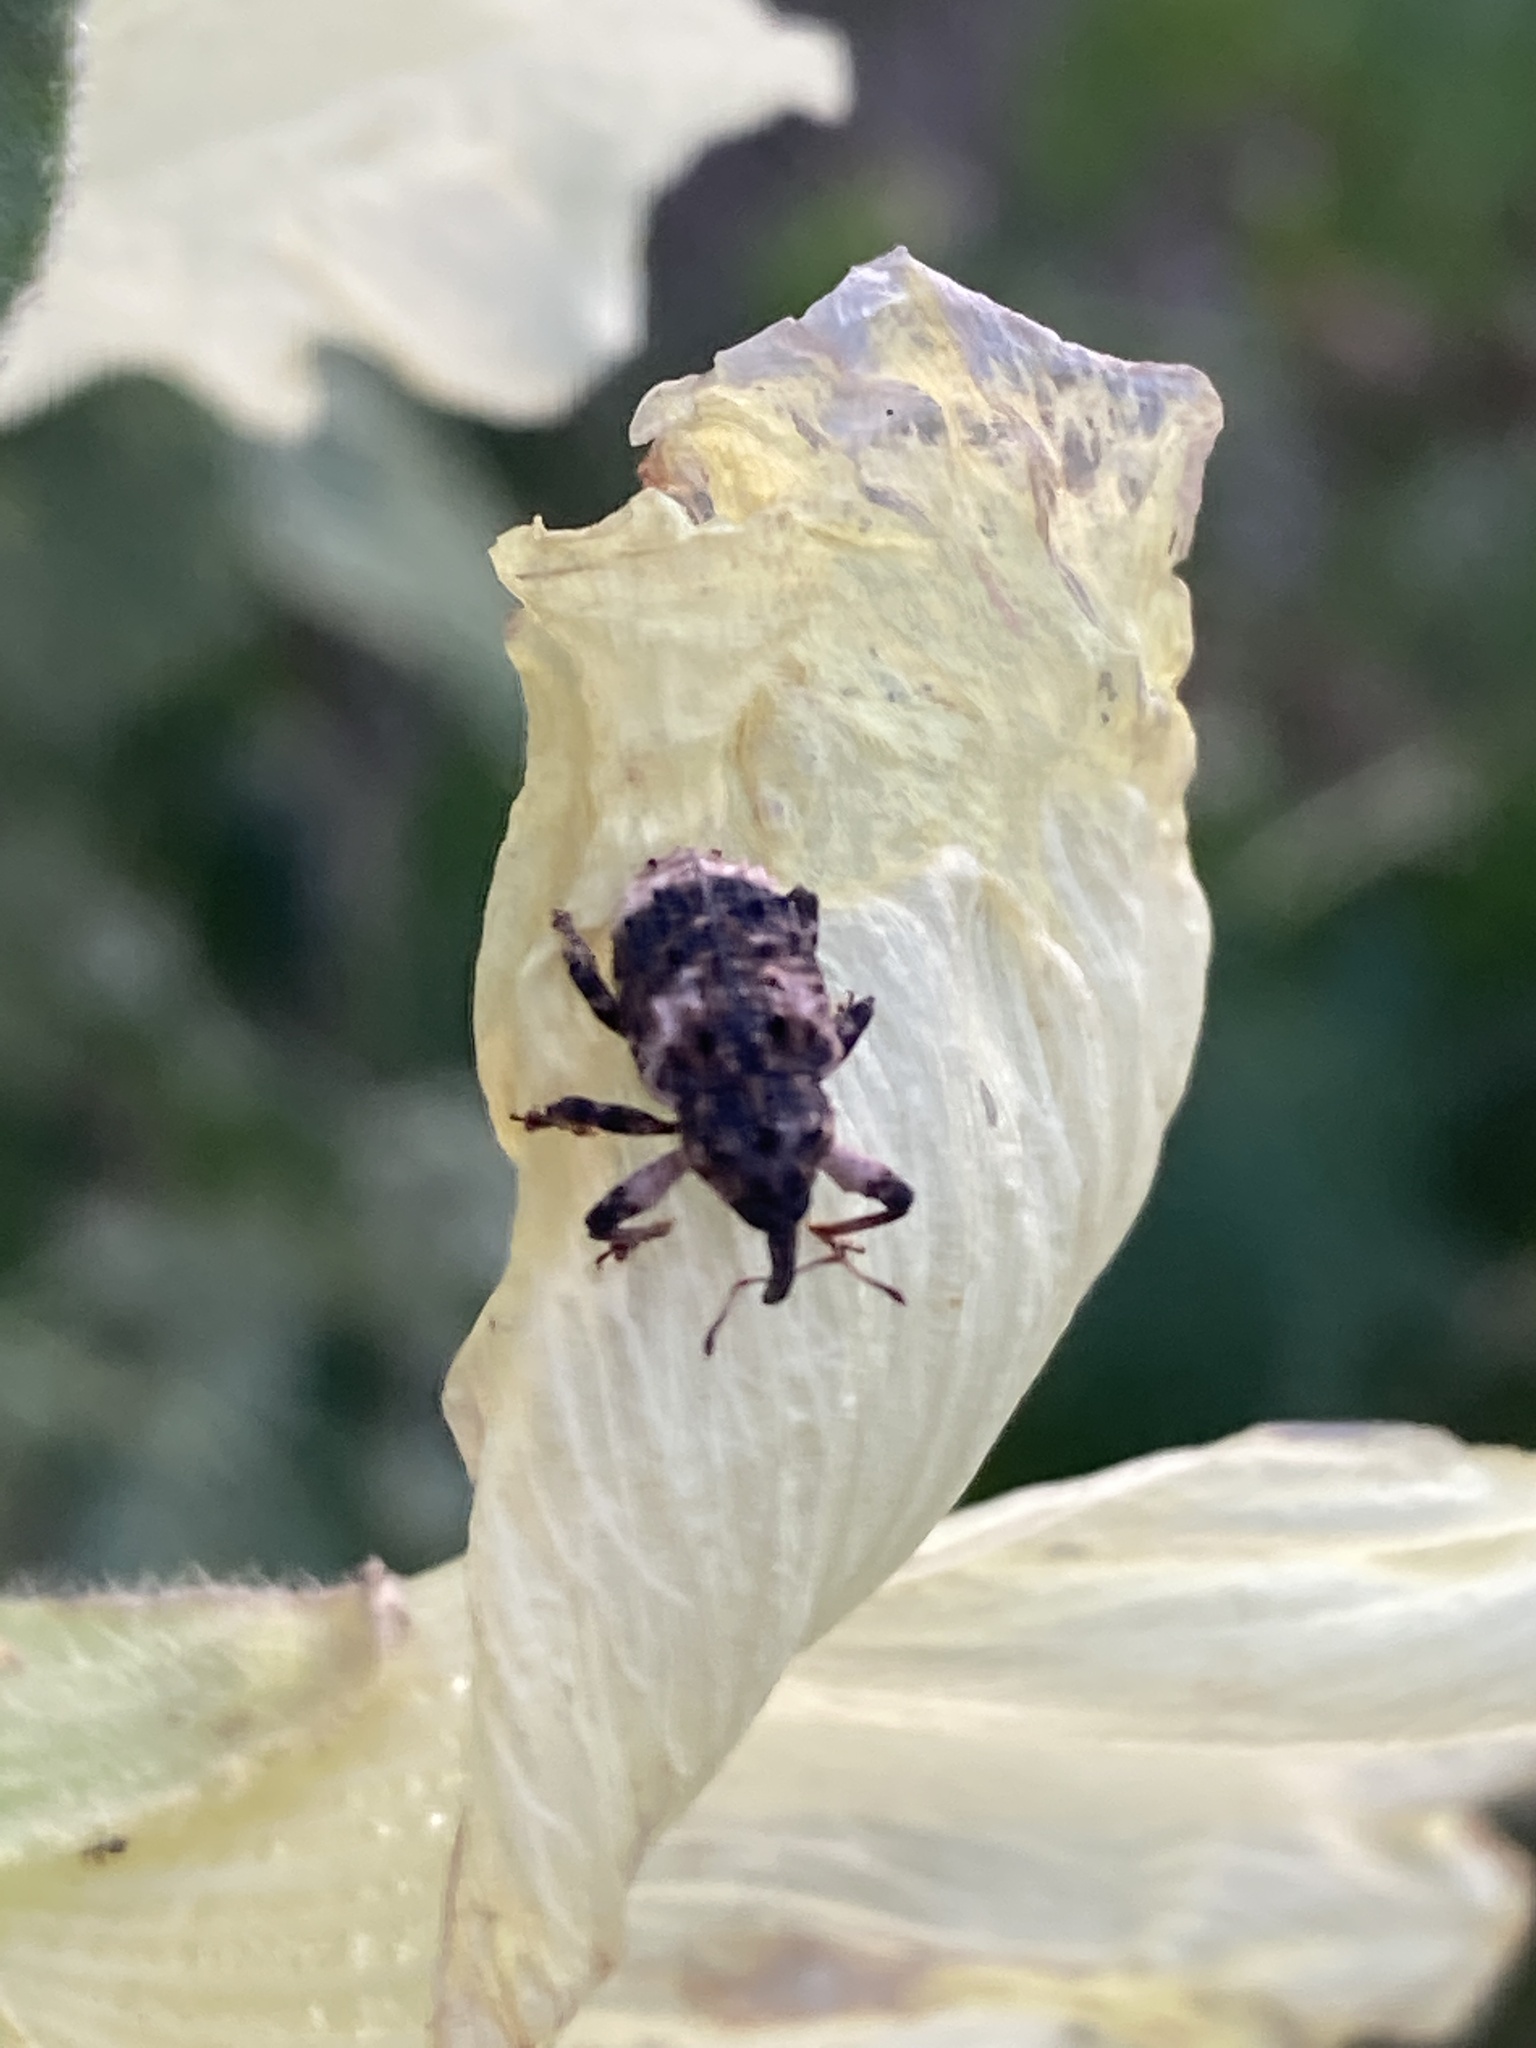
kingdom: Animalia
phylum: Arthropoda
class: Insecta
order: Coleoptera
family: Curculionidae
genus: Cryptorhynchus
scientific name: Cryptorhynchus lapathi
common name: Weevil
